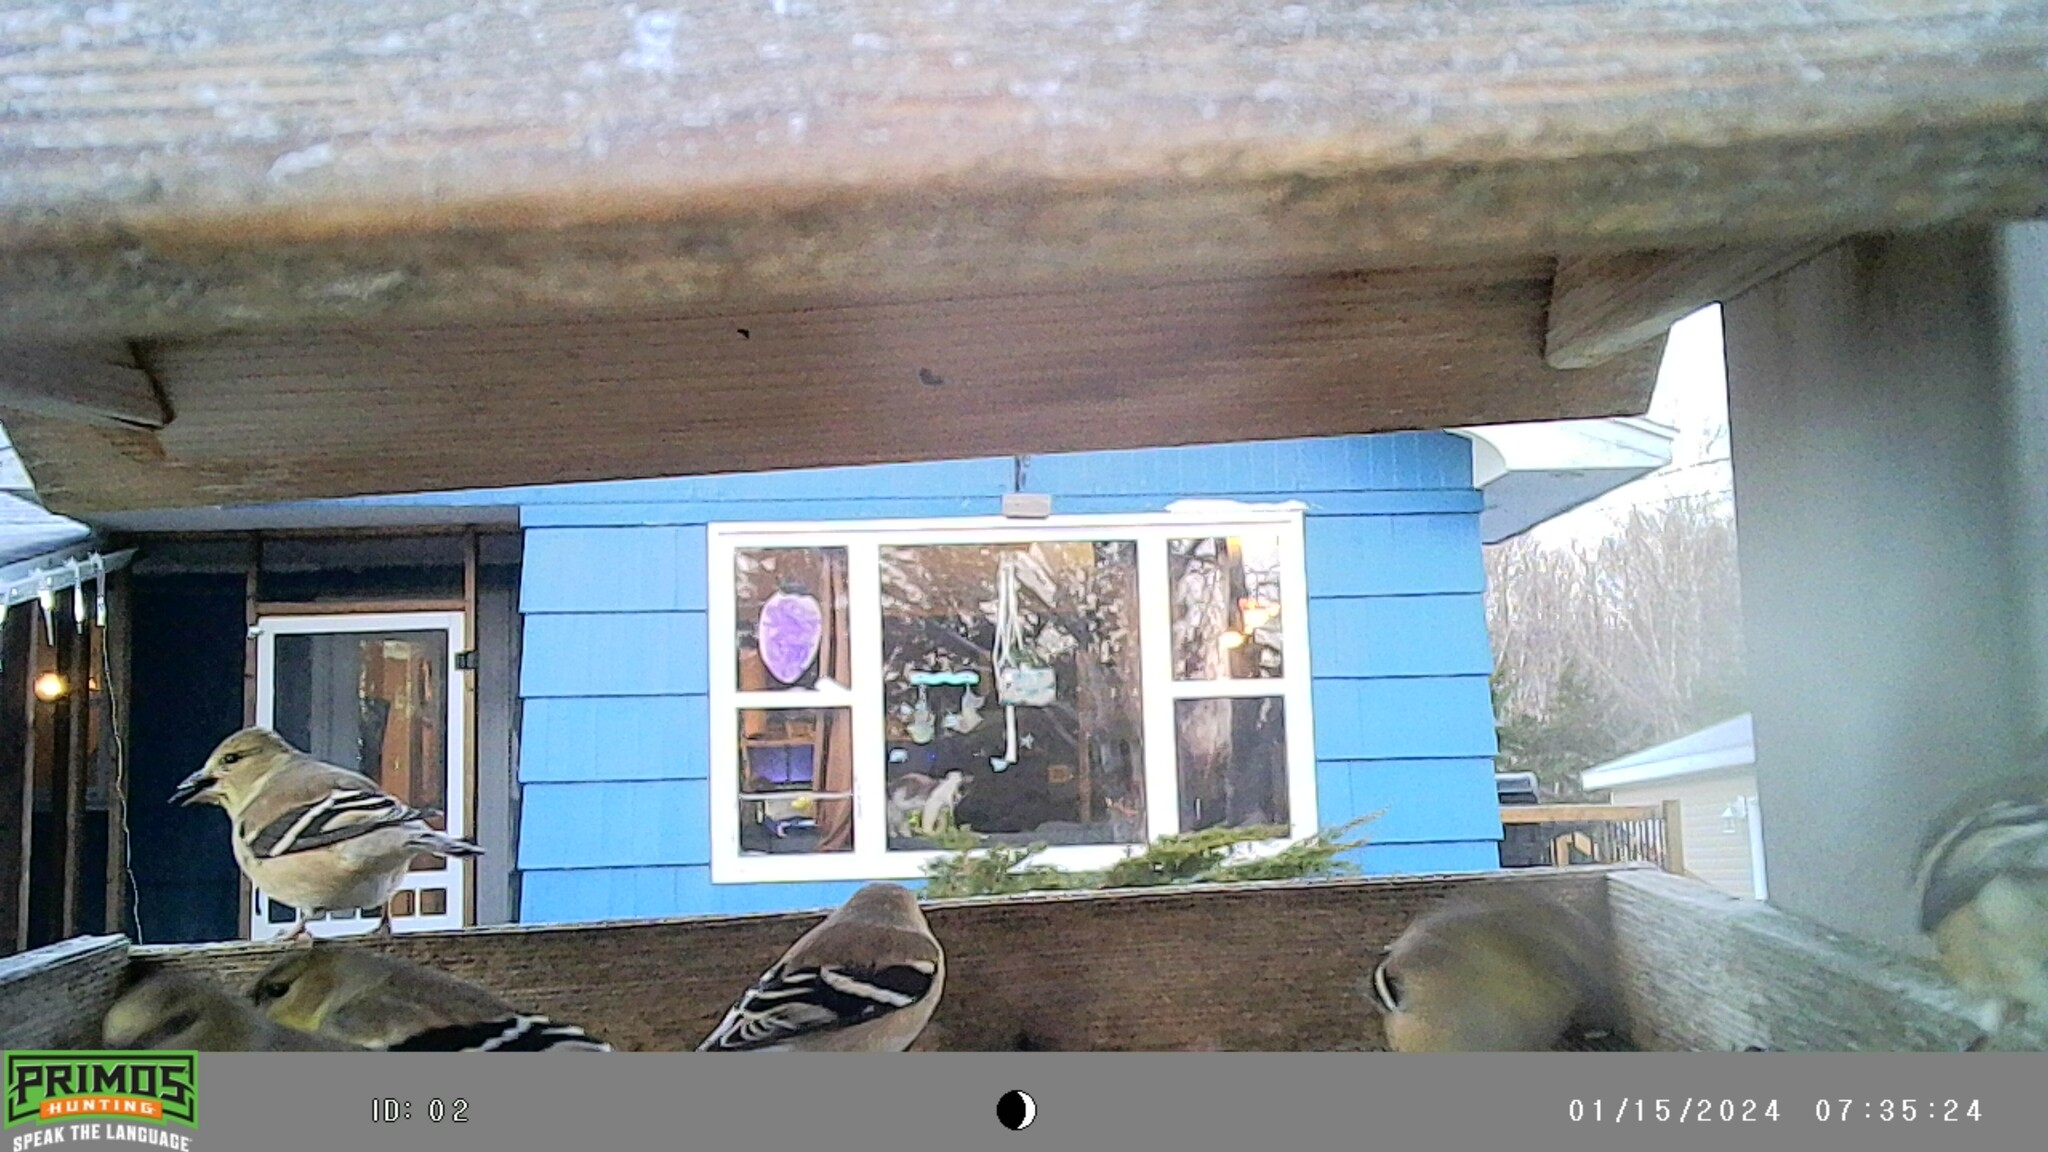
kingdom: Animalia
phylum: Chordata
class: Aves
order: Passeriformes
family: Fringillidae
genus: Spinus
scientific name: Spinus tristis
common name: American goldfinch
